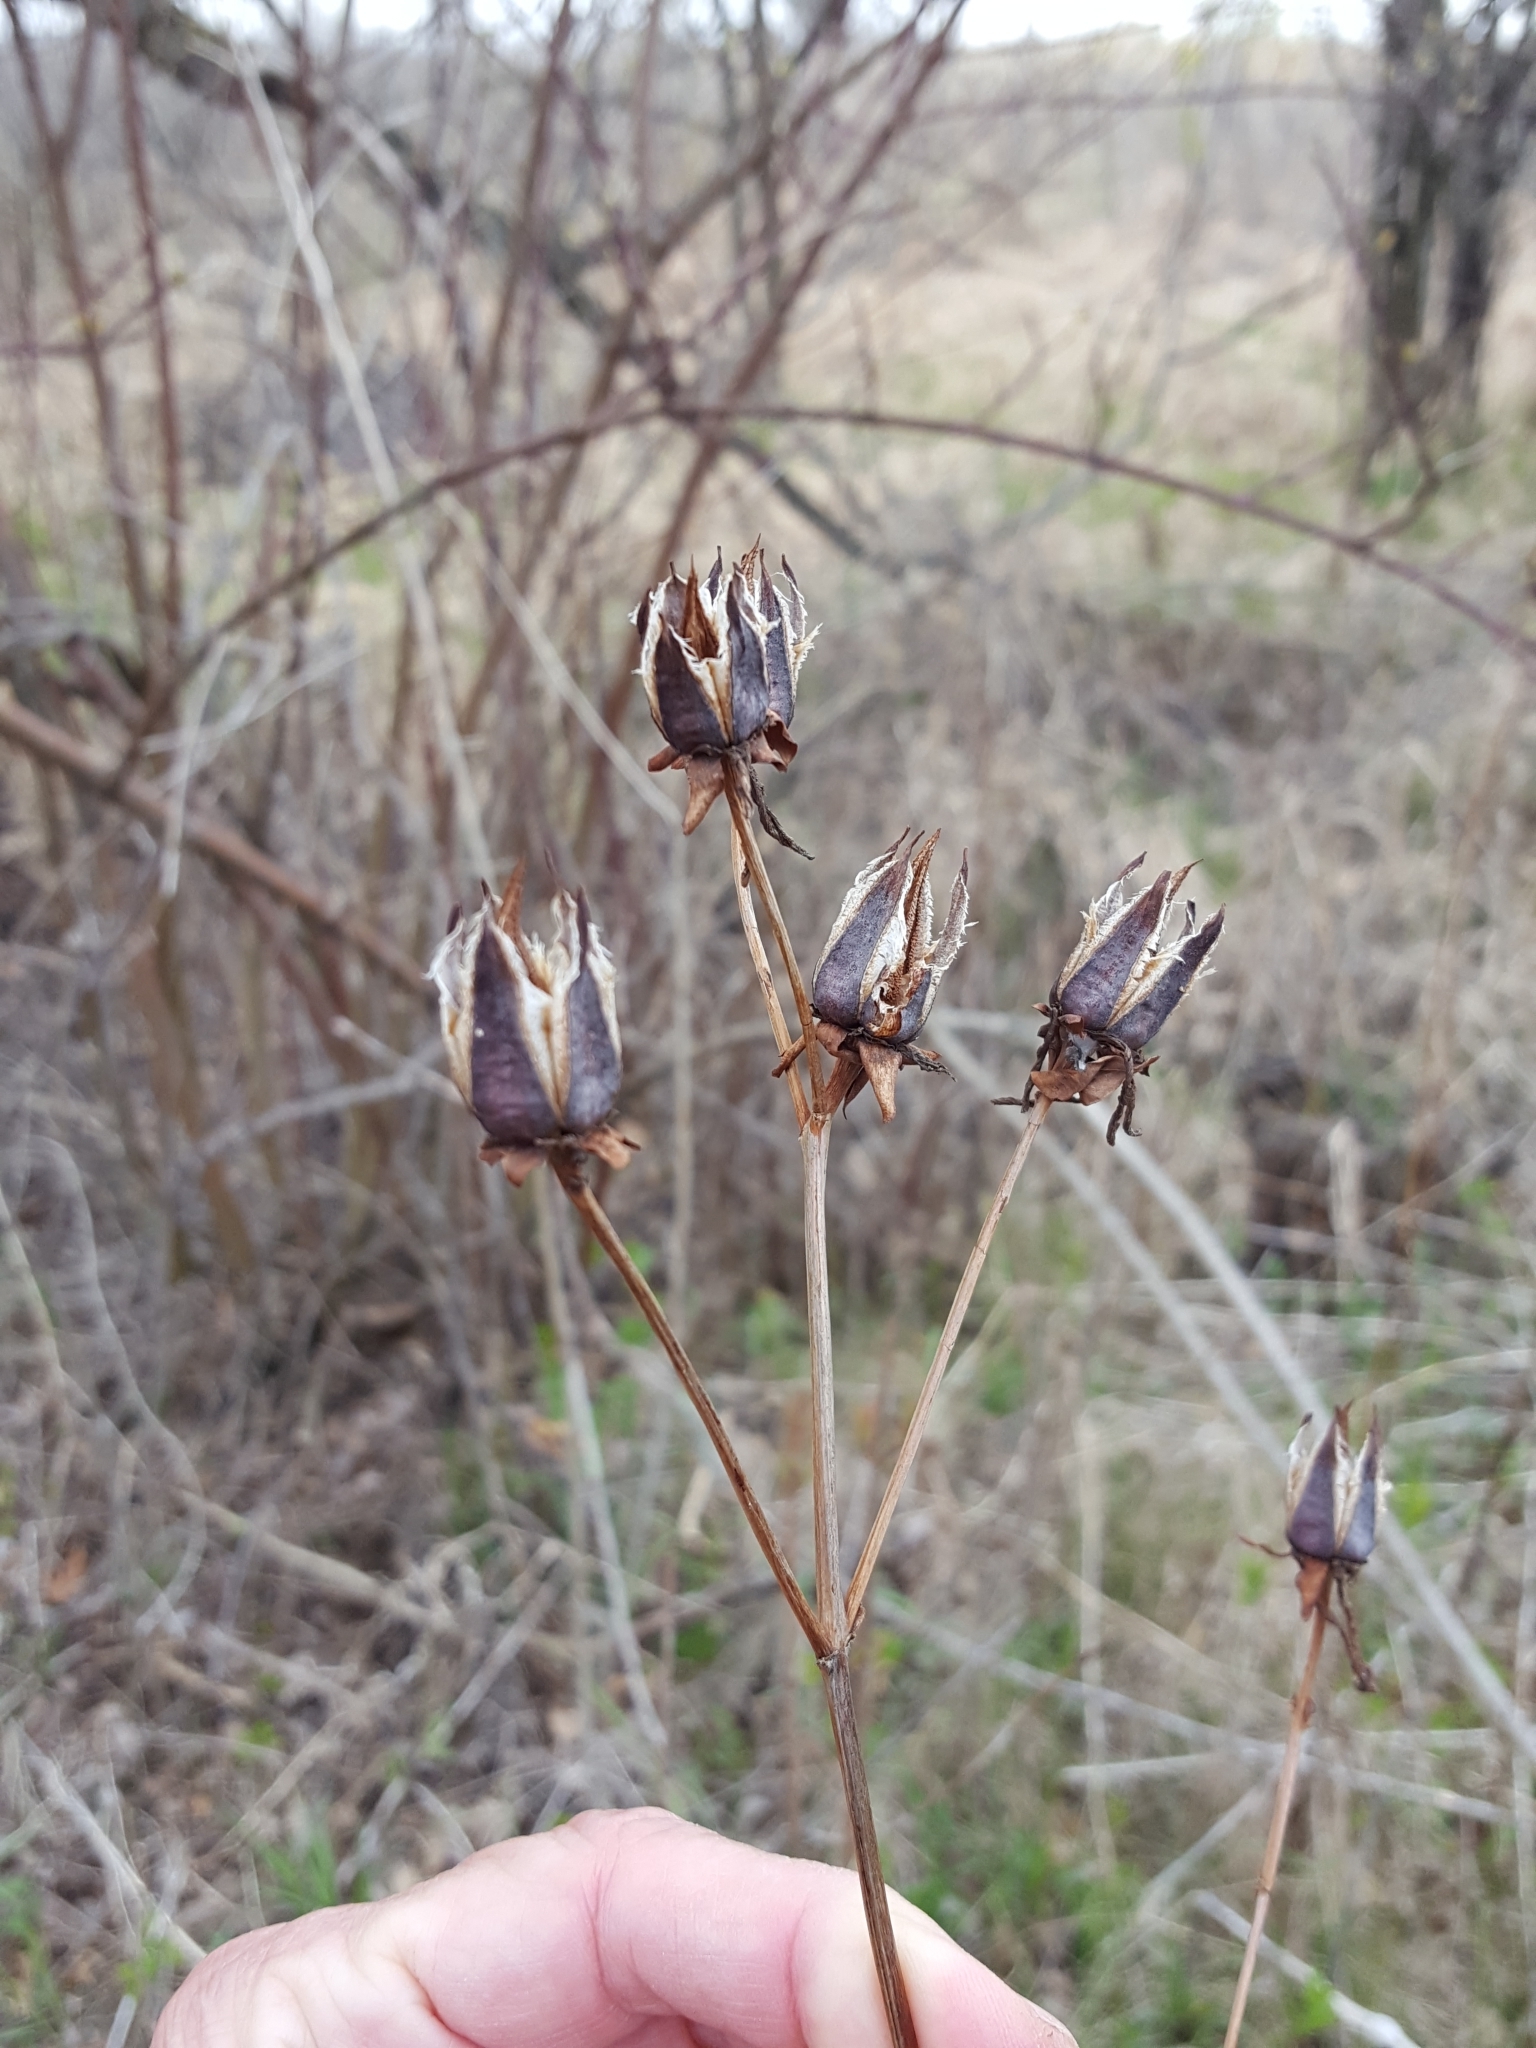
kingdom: Plantae
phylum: Tracheophyta
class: Magnoliopsida
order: Malpighiales
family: Hypericaceae
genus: Hypericum
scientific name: Hypericum ascyron
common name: Giant st. john's-wort
